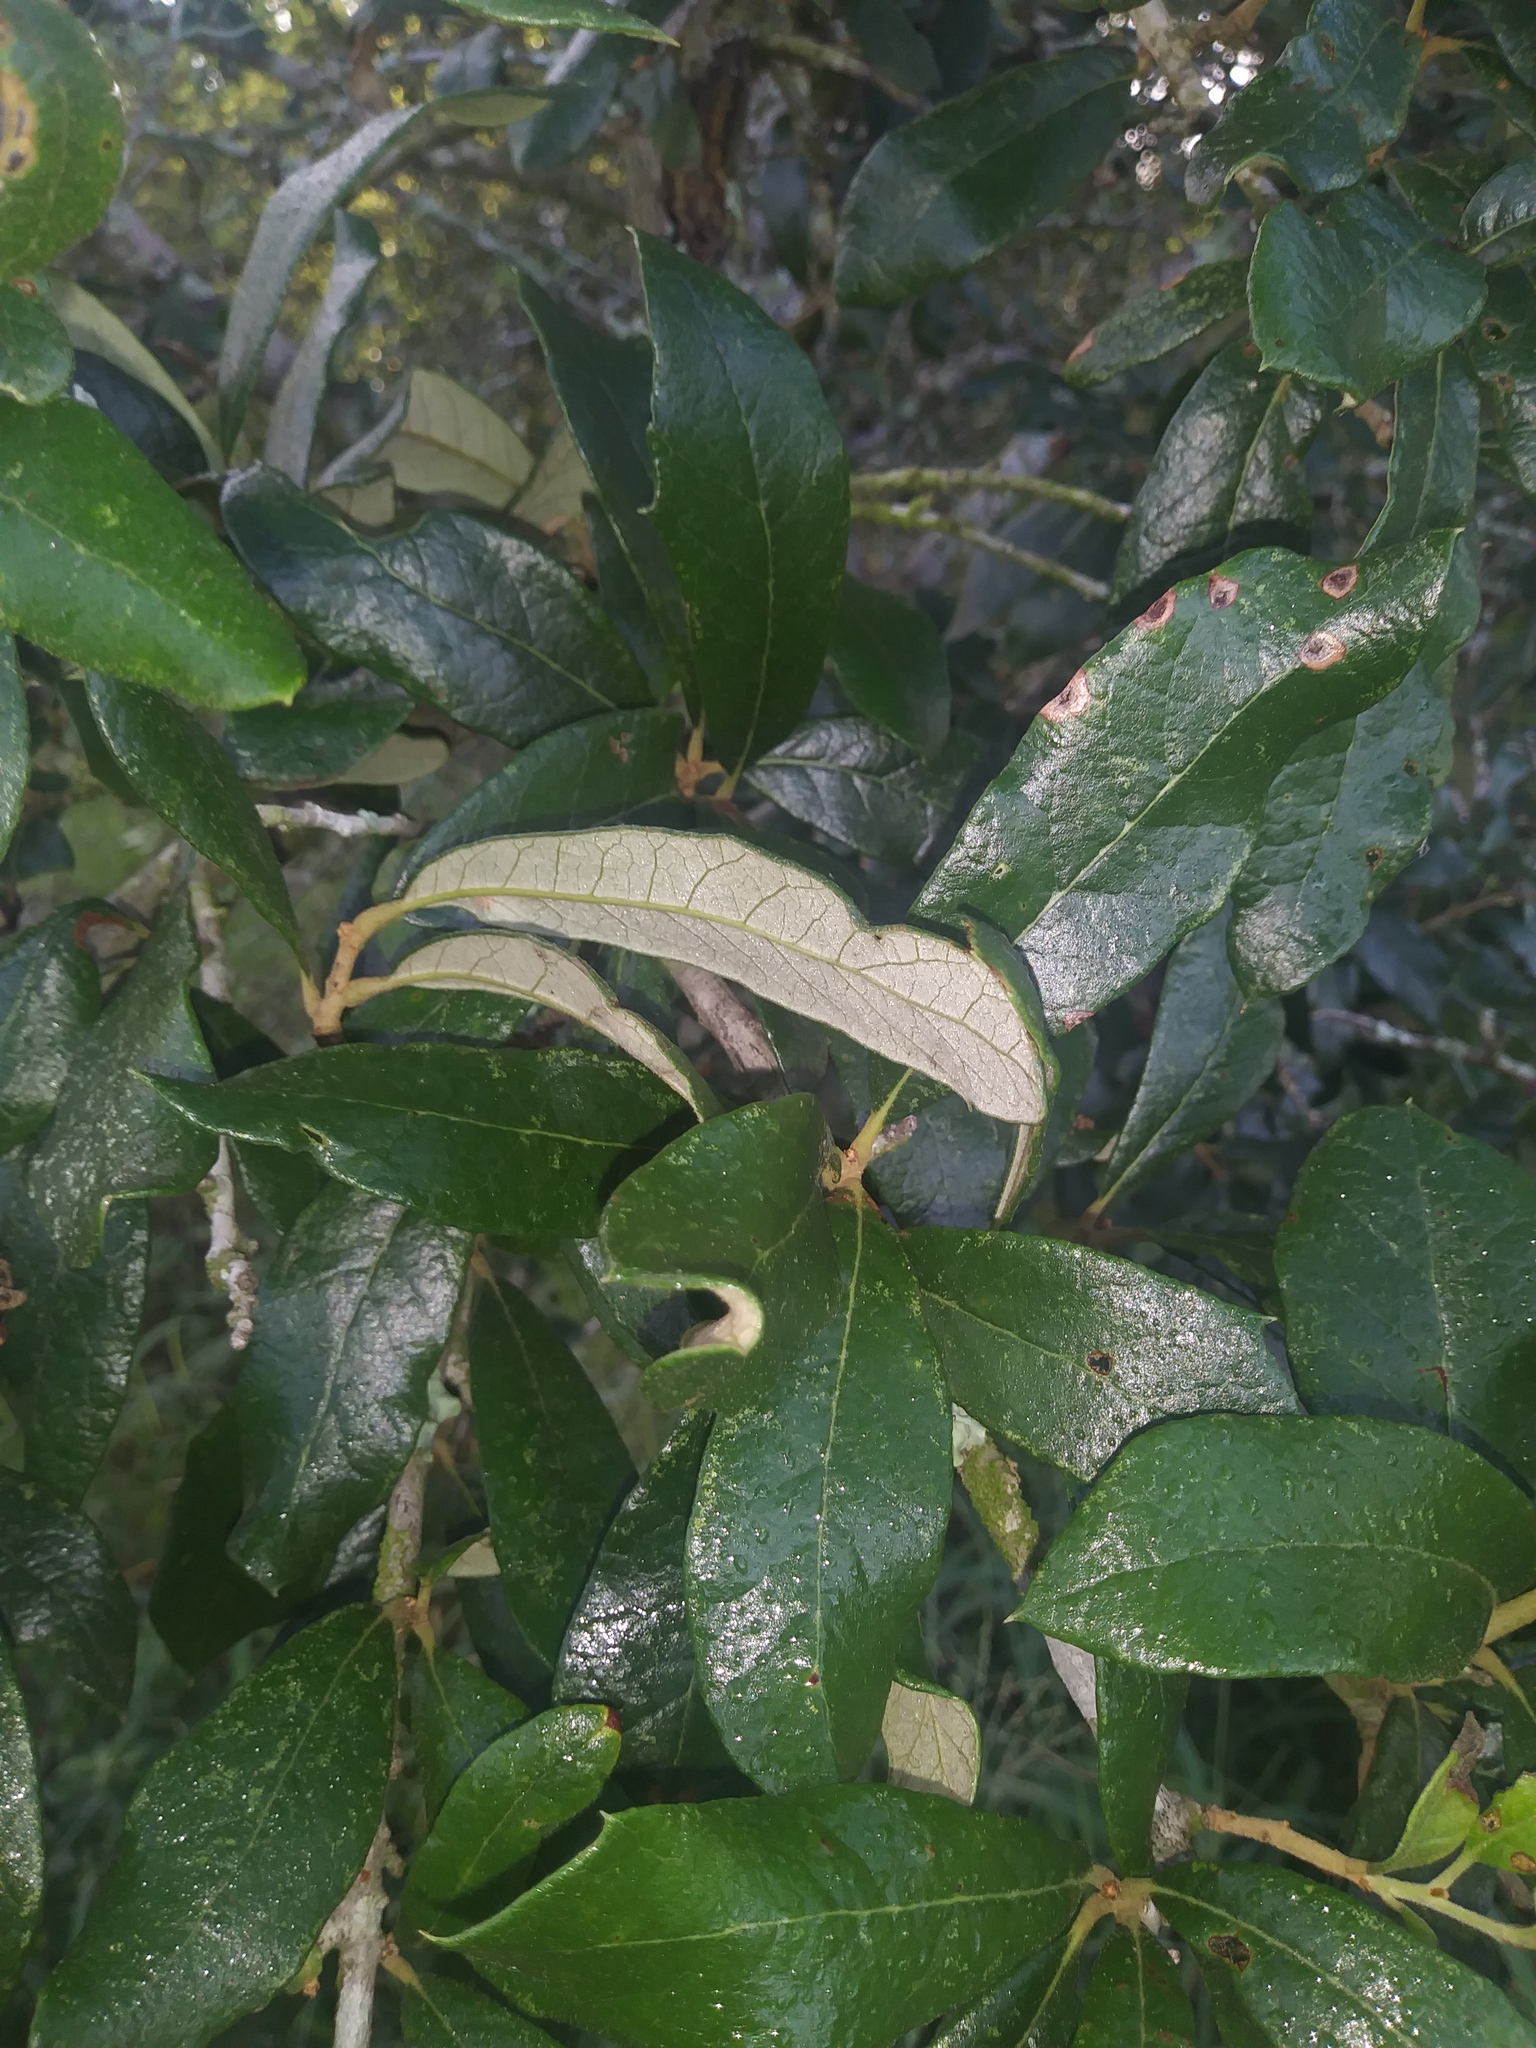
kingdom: Plantae
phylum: Tracheophyta
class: Magnoliopsida
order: Fagales
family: Fagaceae
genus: Quercus
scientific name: Quercus virginiana
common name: Southern live oak
